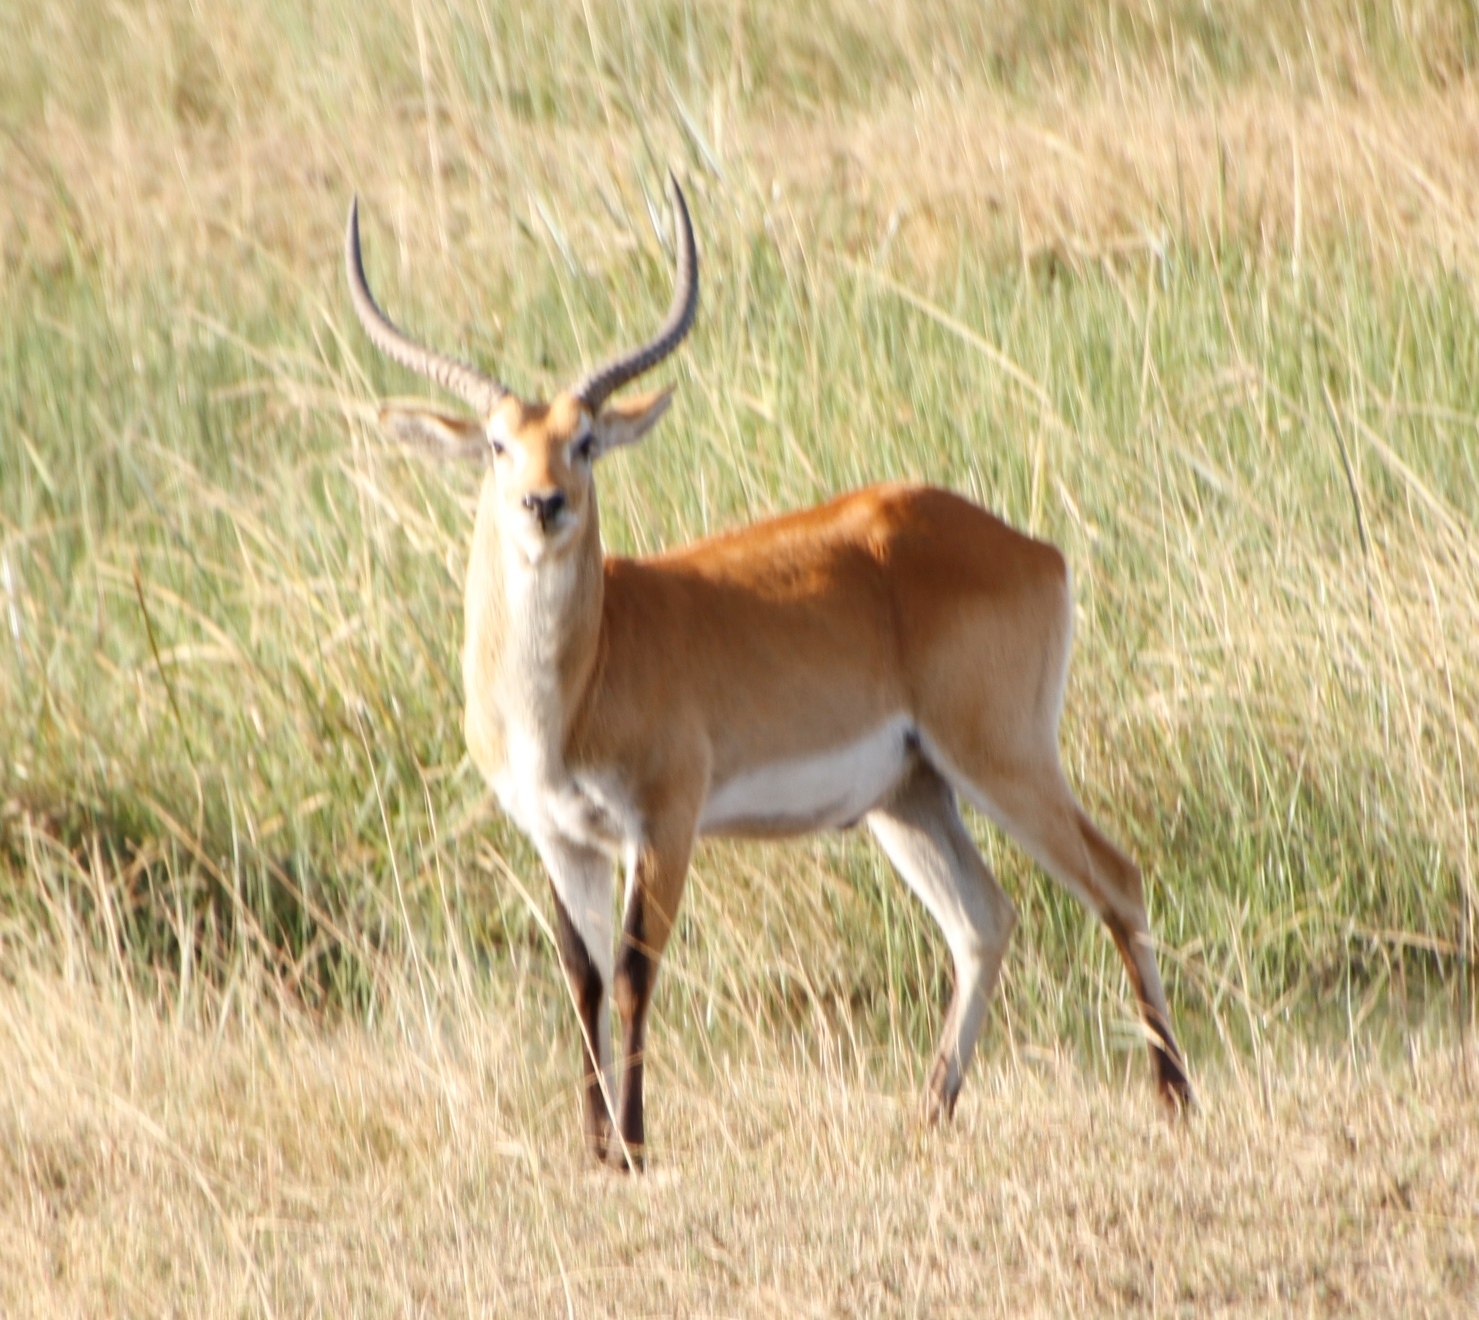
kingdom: Animalia
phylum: Chordata
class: Mammalia
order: Artiodactyla
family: Bovidae
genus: Kobus
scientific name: Kobus leche
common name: Lechwe
